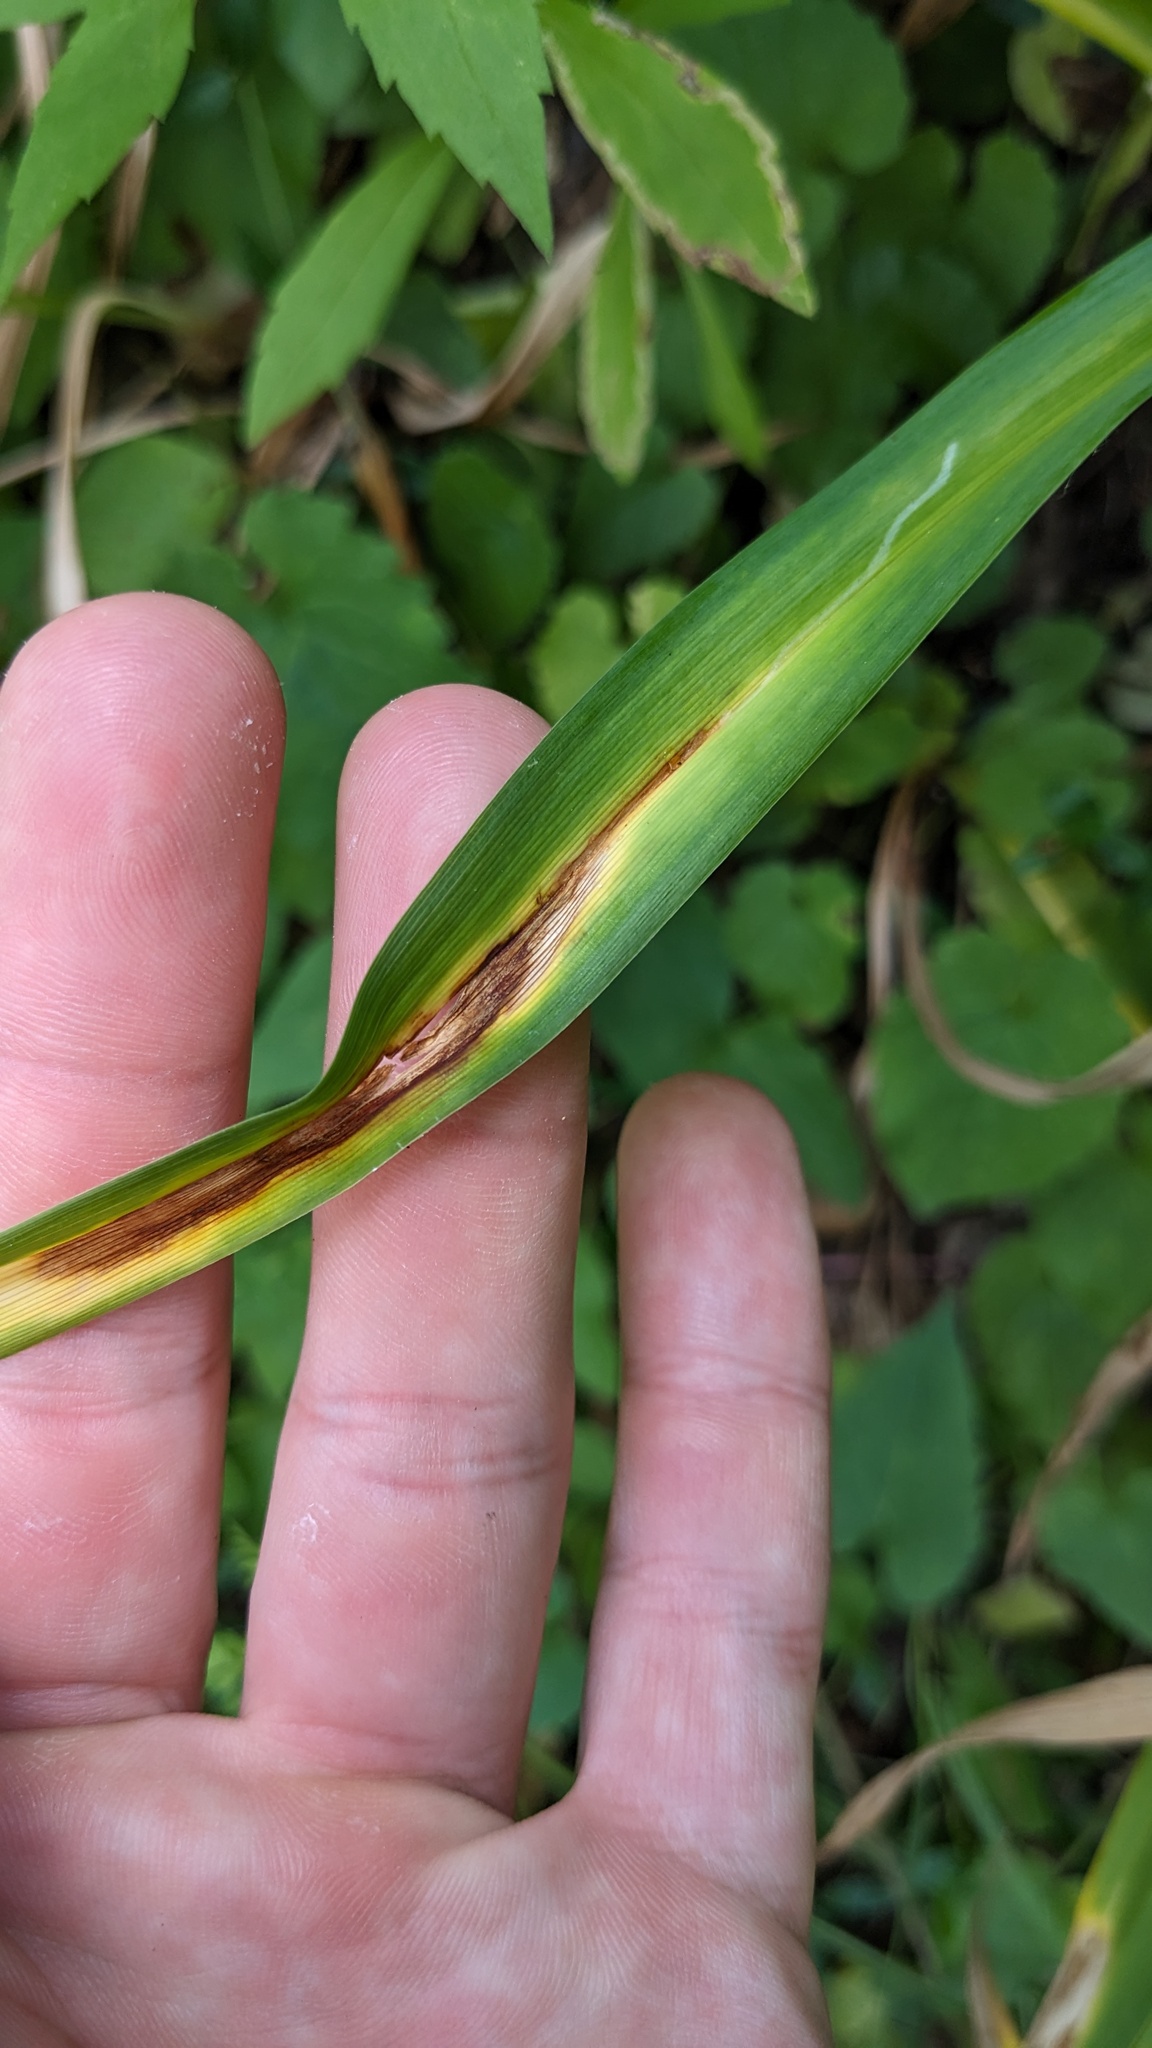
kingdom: Animalia
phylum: Arthropoda
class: Insecta
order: Diptera
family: Agromyzidae
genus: Ophiomyia
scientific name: Ophiomyia kwansonis
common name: Daylily leafminer
